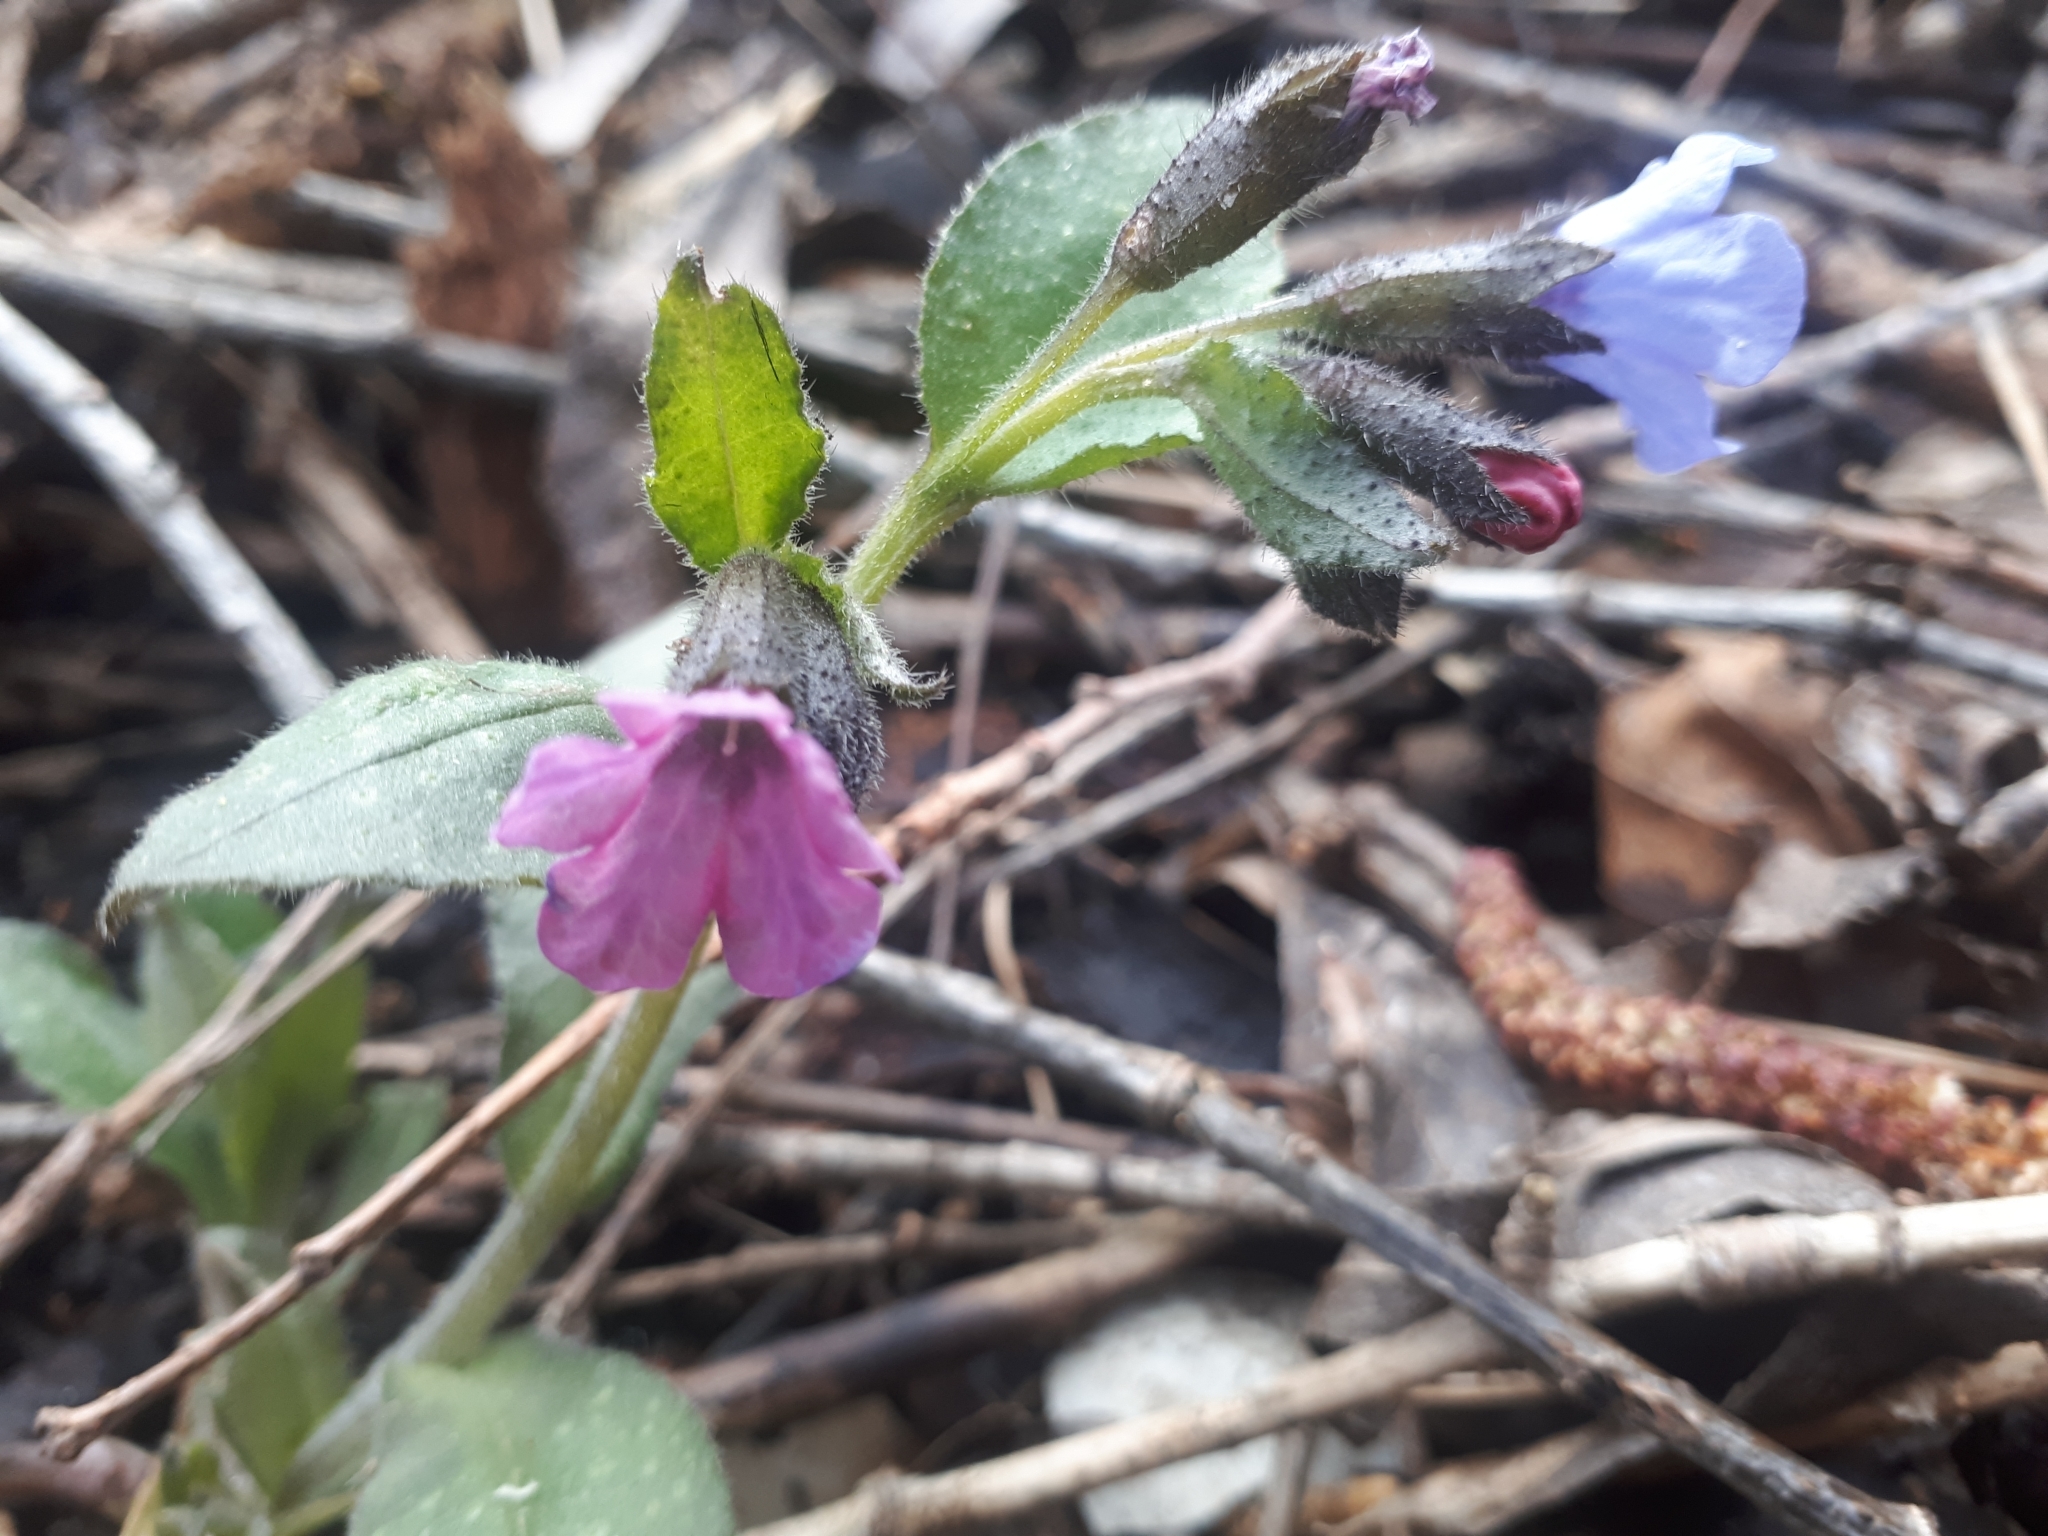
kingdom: Plantae
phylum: Tracheophyta
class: Magnoliopsida
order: Boraginales
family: Boraginaceae
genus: Pulmonaria
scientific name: Pulmonaria obscura
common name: Suffolk lungwort
